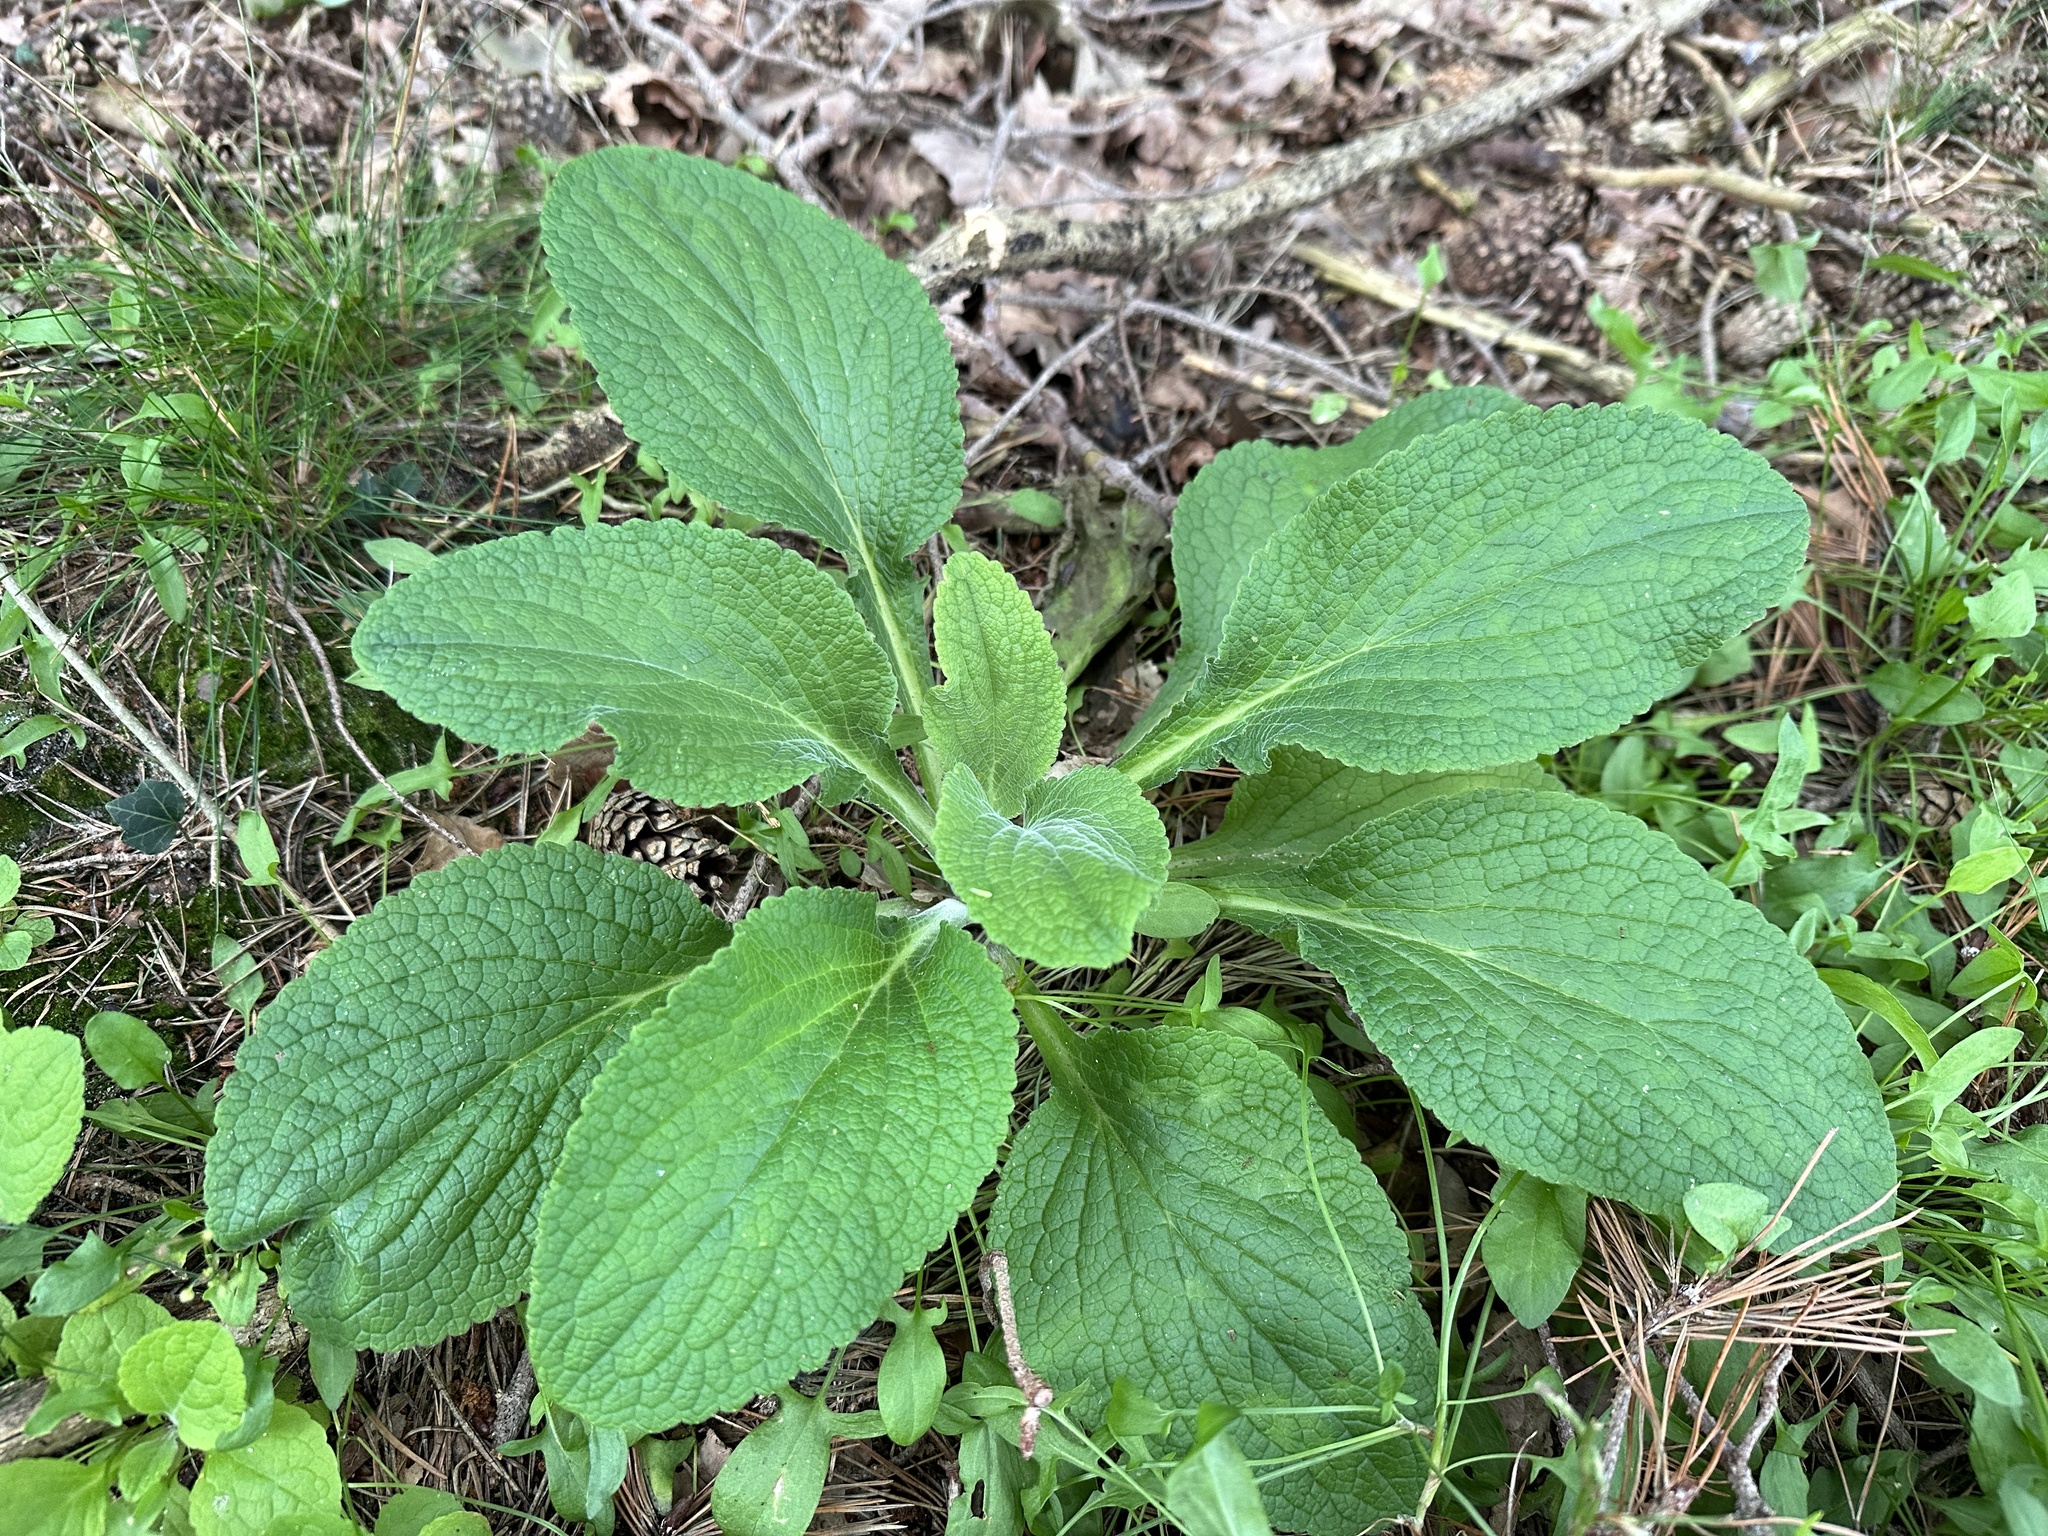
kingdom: Plantae
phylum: Tracheophyta
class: Magnoliopsida
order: Lamiales
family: Plantaginaceae
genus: Digitalis
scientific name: Digitalis purpurea
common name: Foxglove
